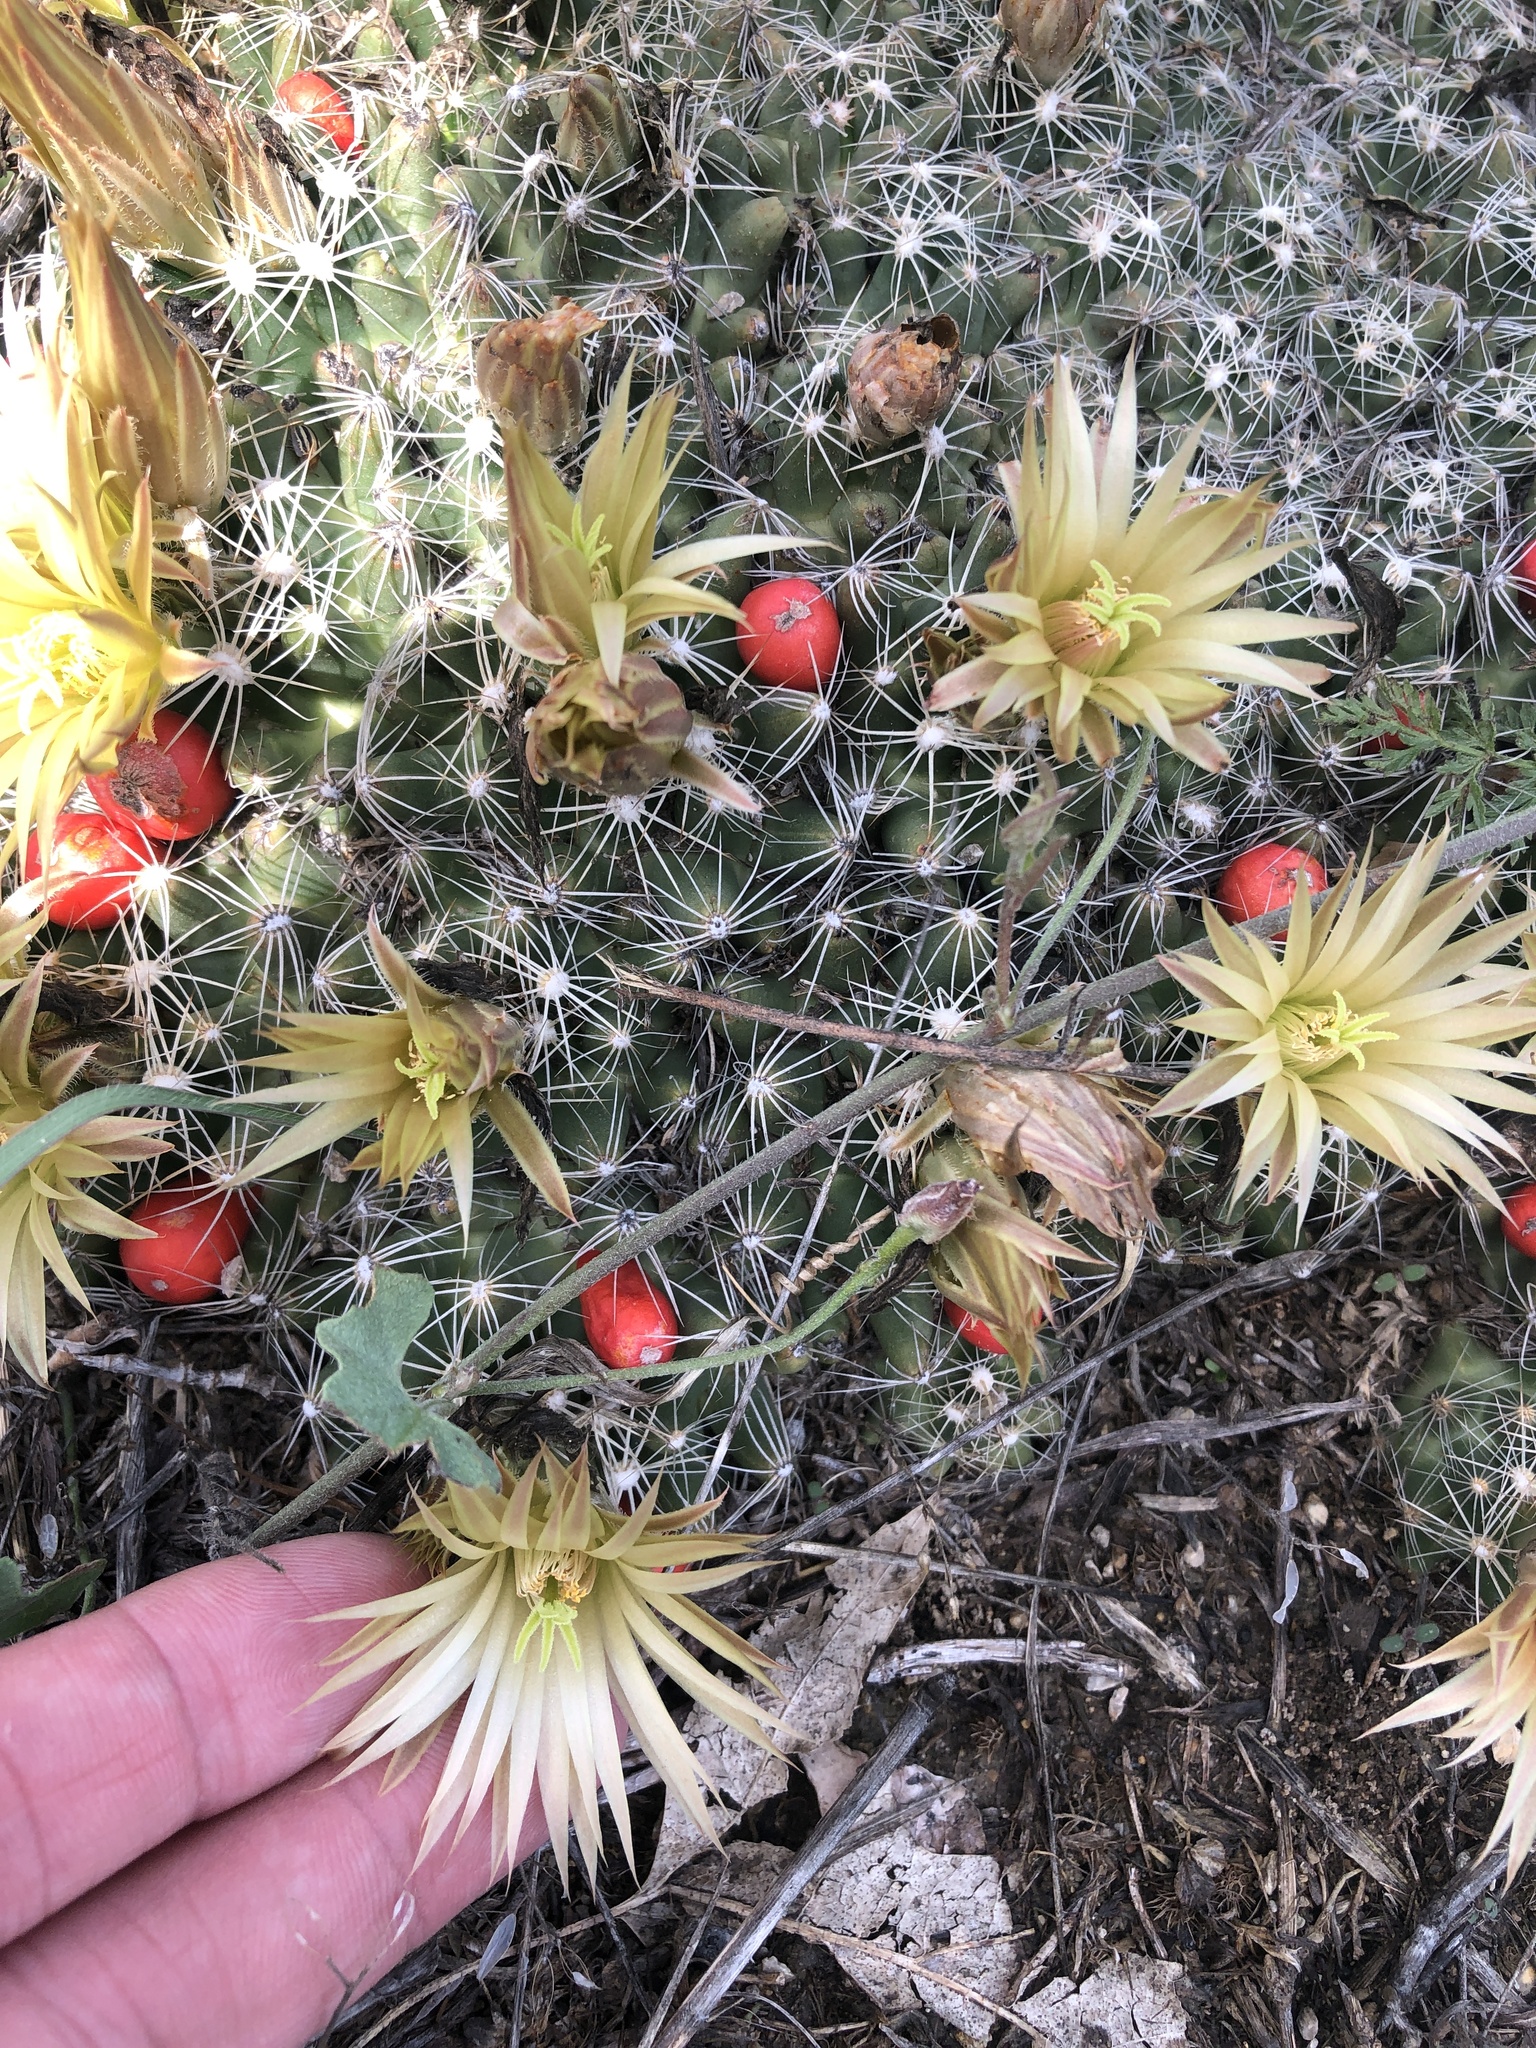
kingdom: Plantae
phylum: Tracheophyta
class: Magnoliopsida
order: Caryophyllales
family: Cactaceae
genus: Pelecyphora
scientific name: Pelecyphora missouriensis
